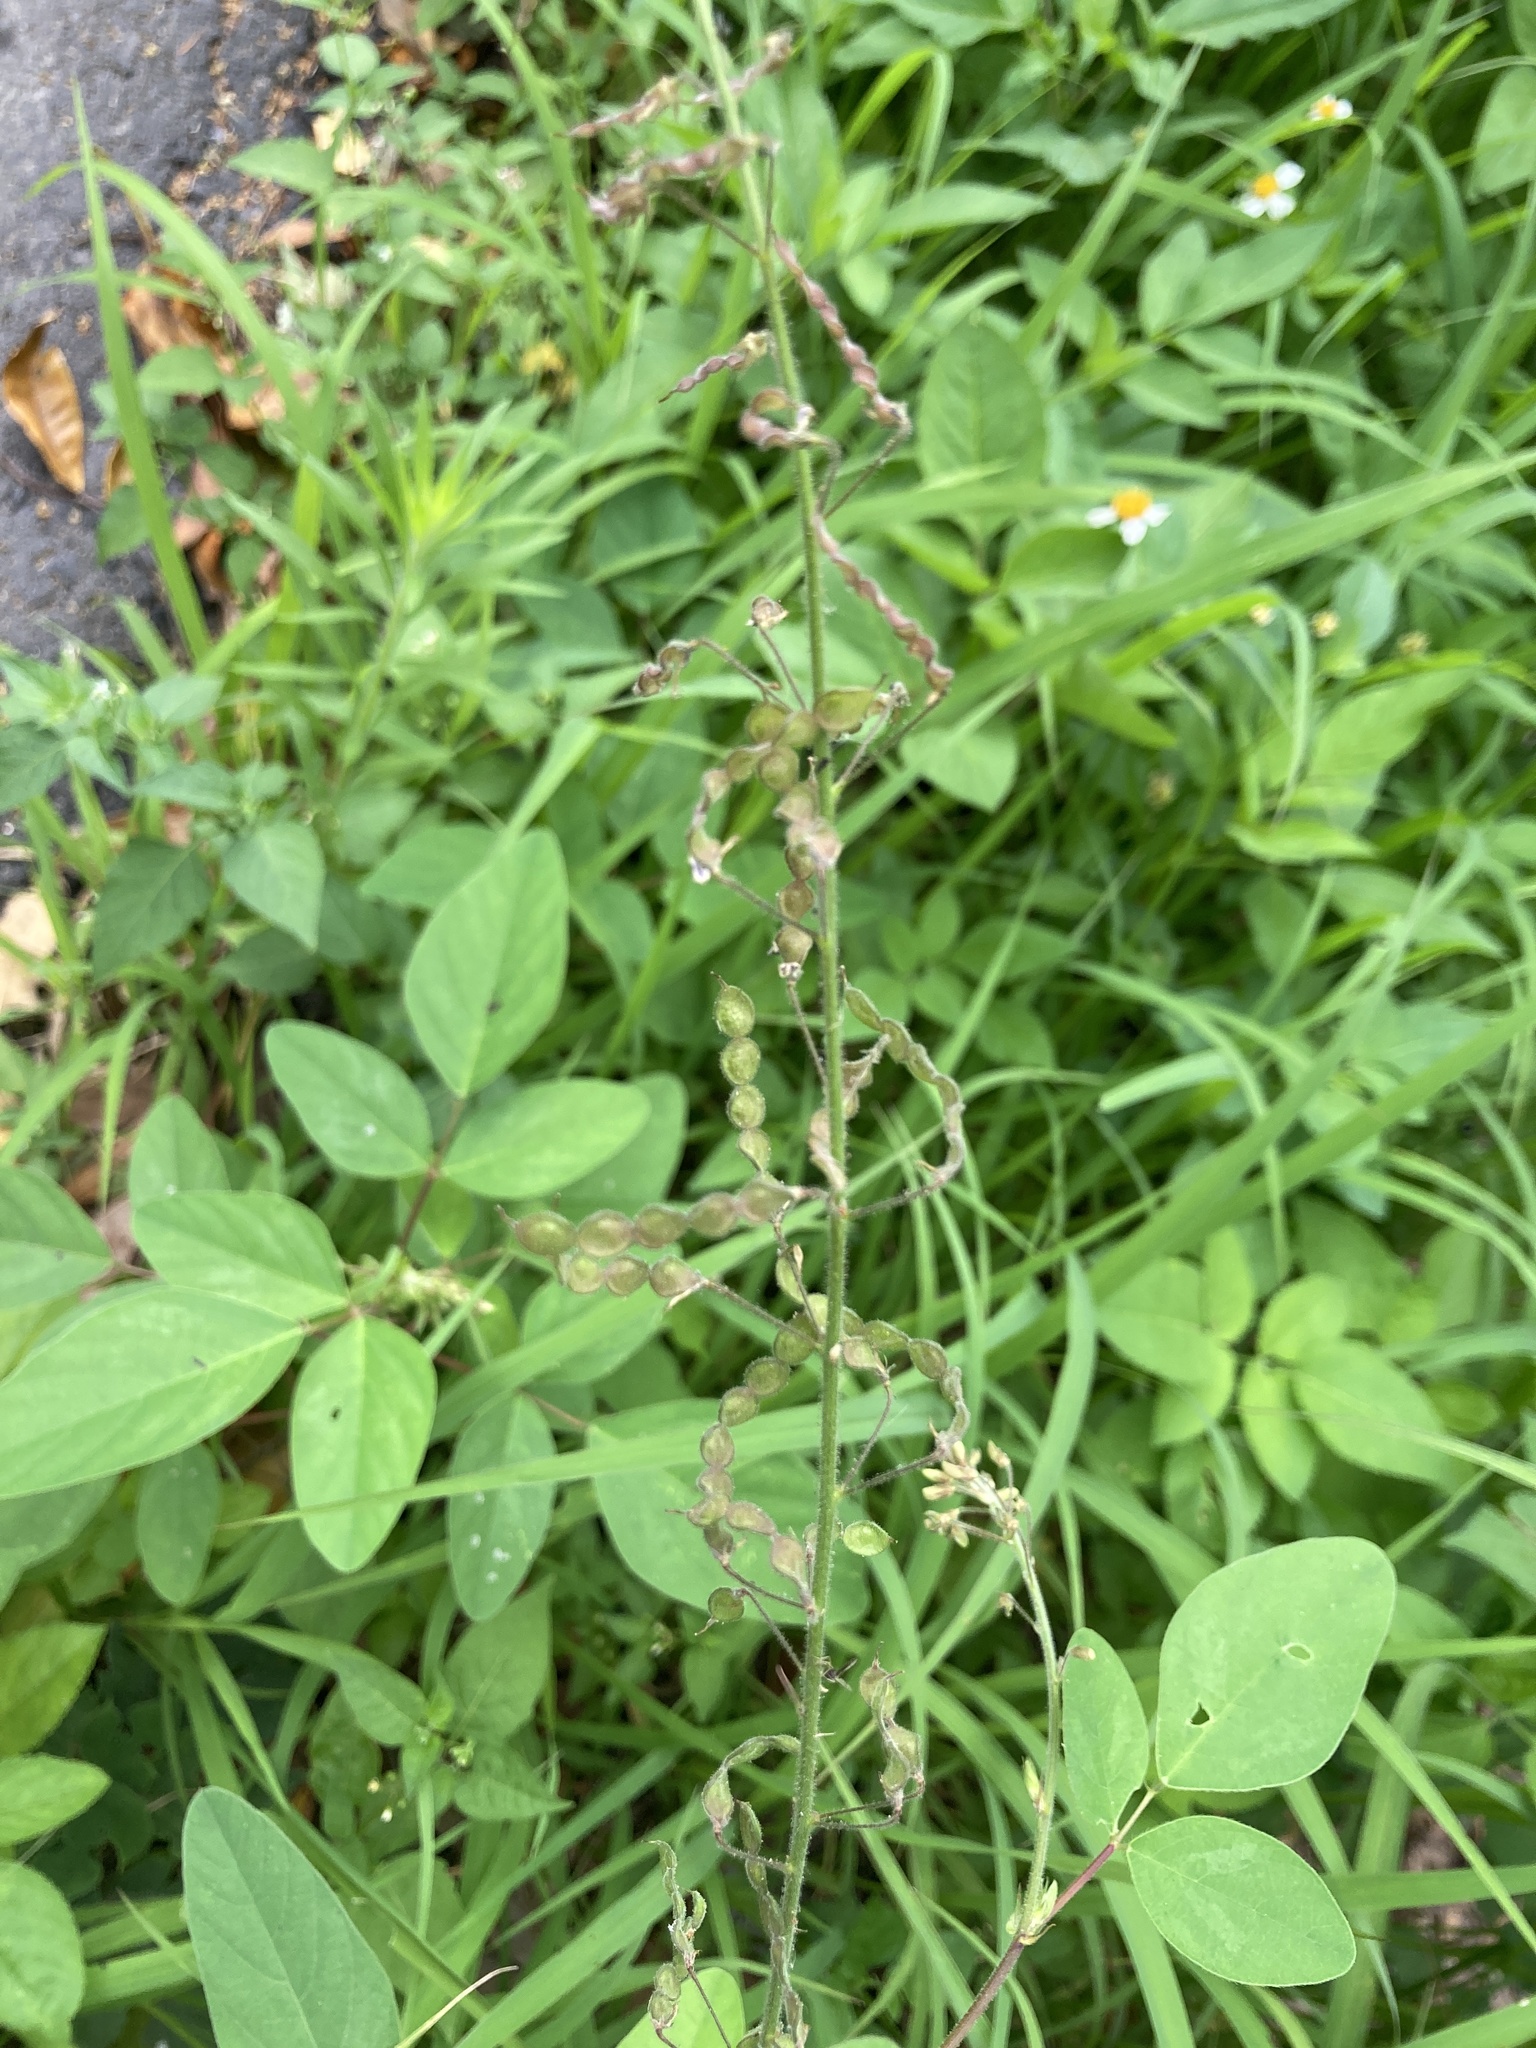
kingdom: Plantae
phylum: Tracheophyta
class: Magnoliopsida
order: Fabales
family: Fabaceae
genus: Desmodium
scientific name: Desmodium tortuosum
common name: Dixie ticktrefoil
